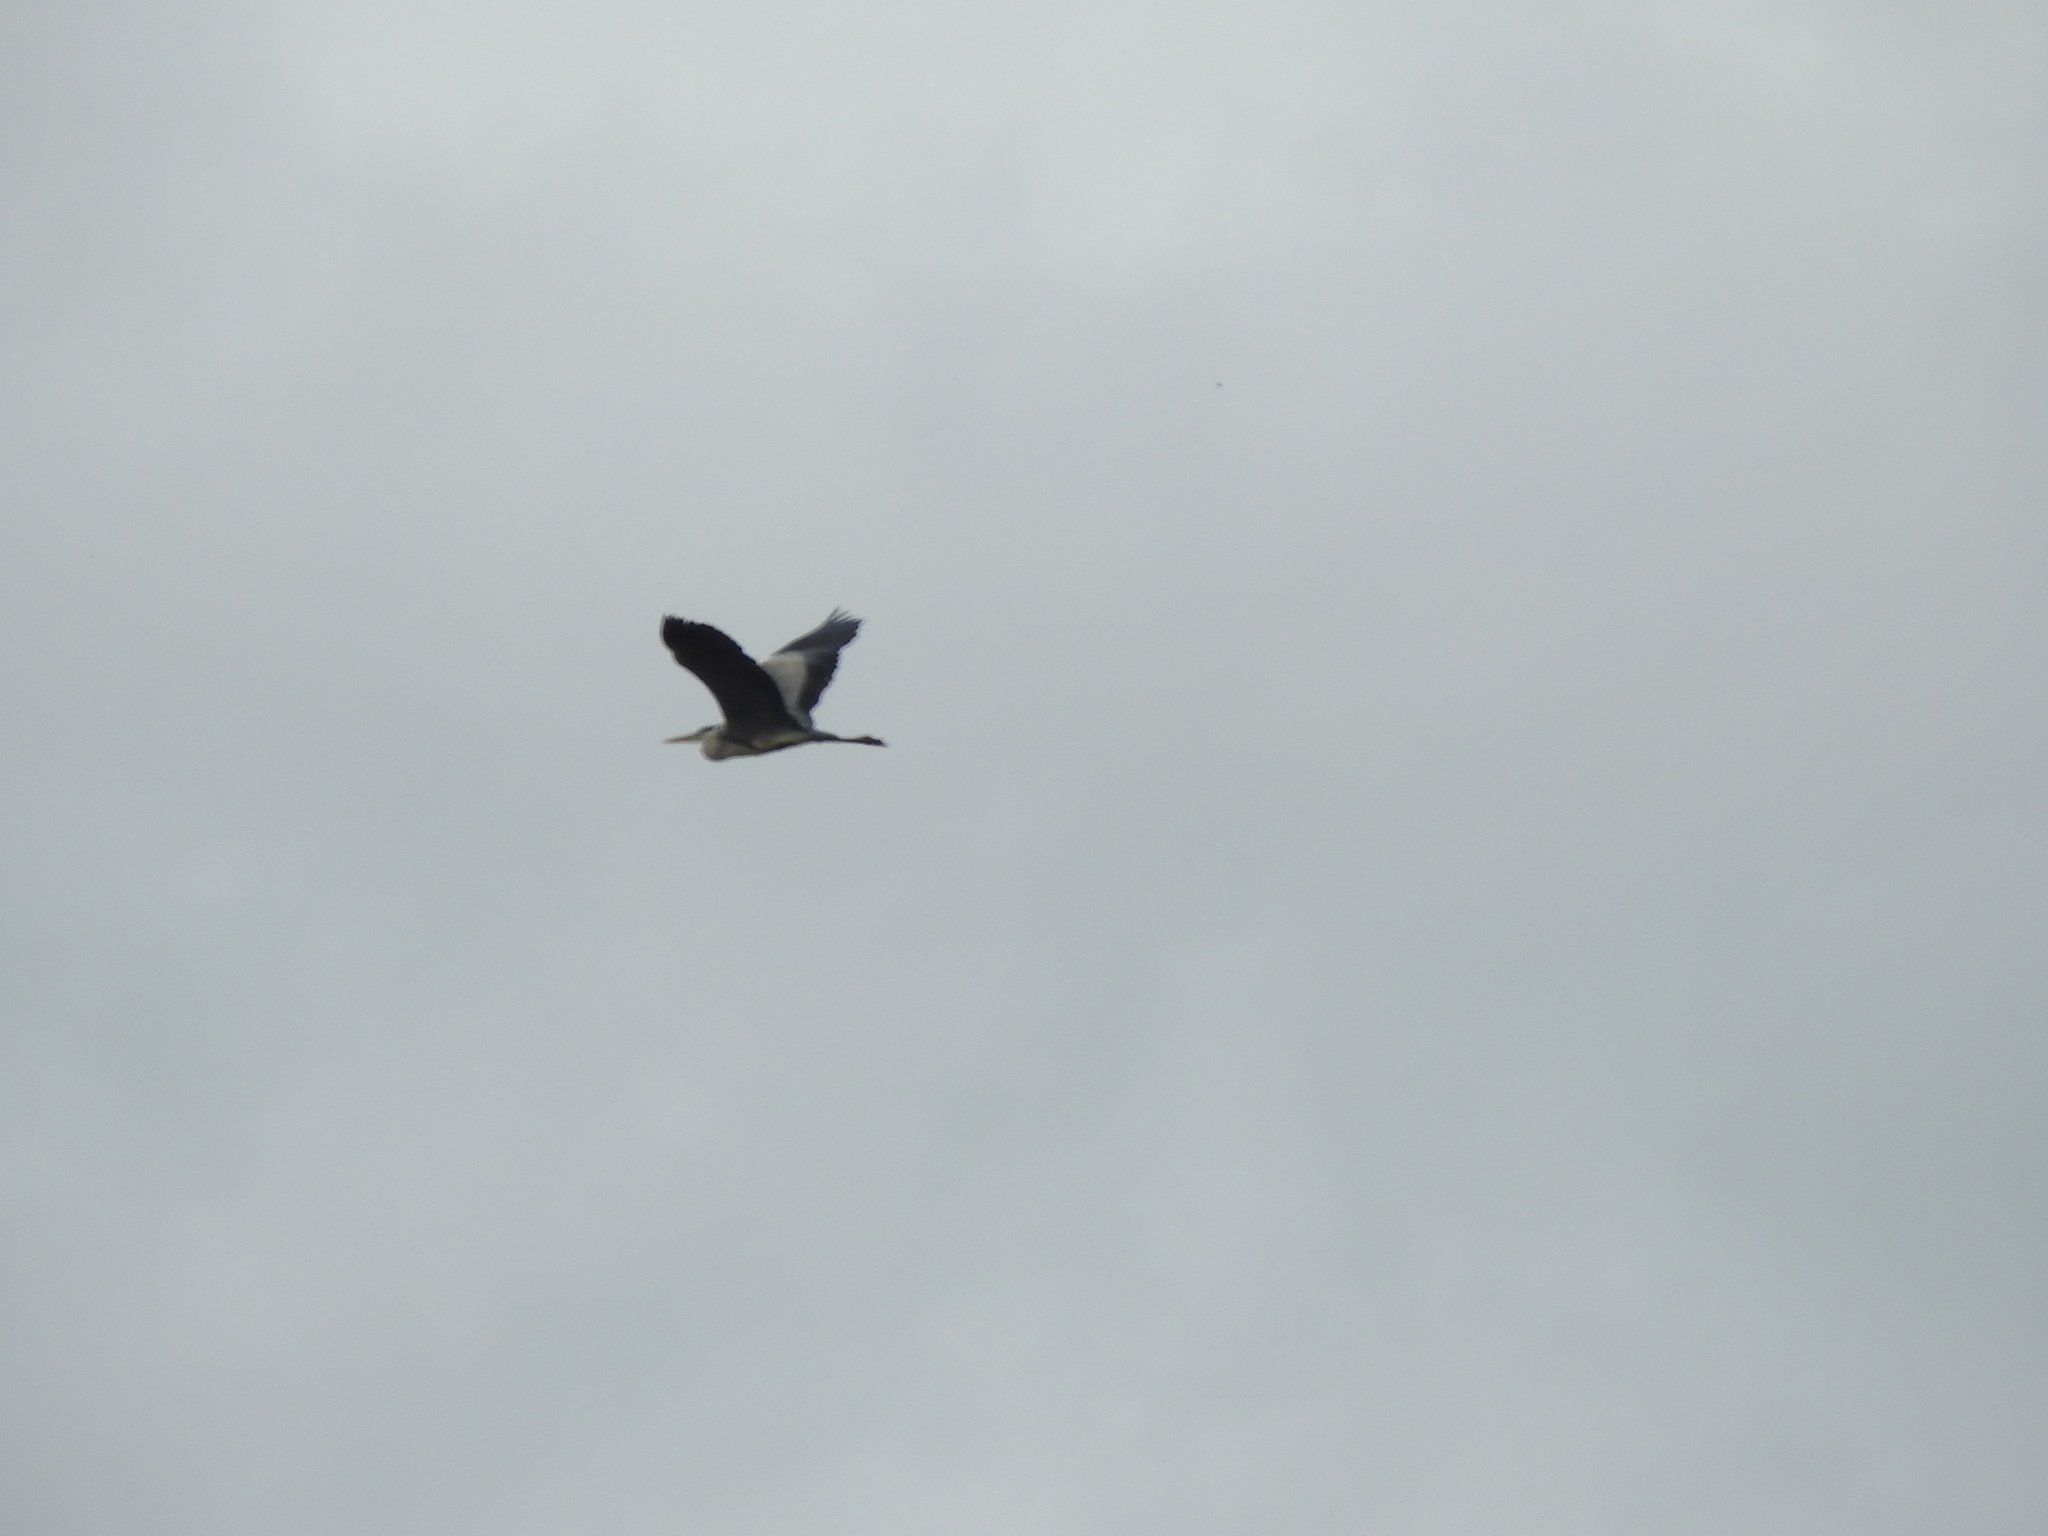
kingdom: Animalia
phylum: Chordata
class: Aves
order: Pelecaniformes
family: Ardeidae
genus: Ardea
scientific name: Ardea cinerea
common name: Grey heron
